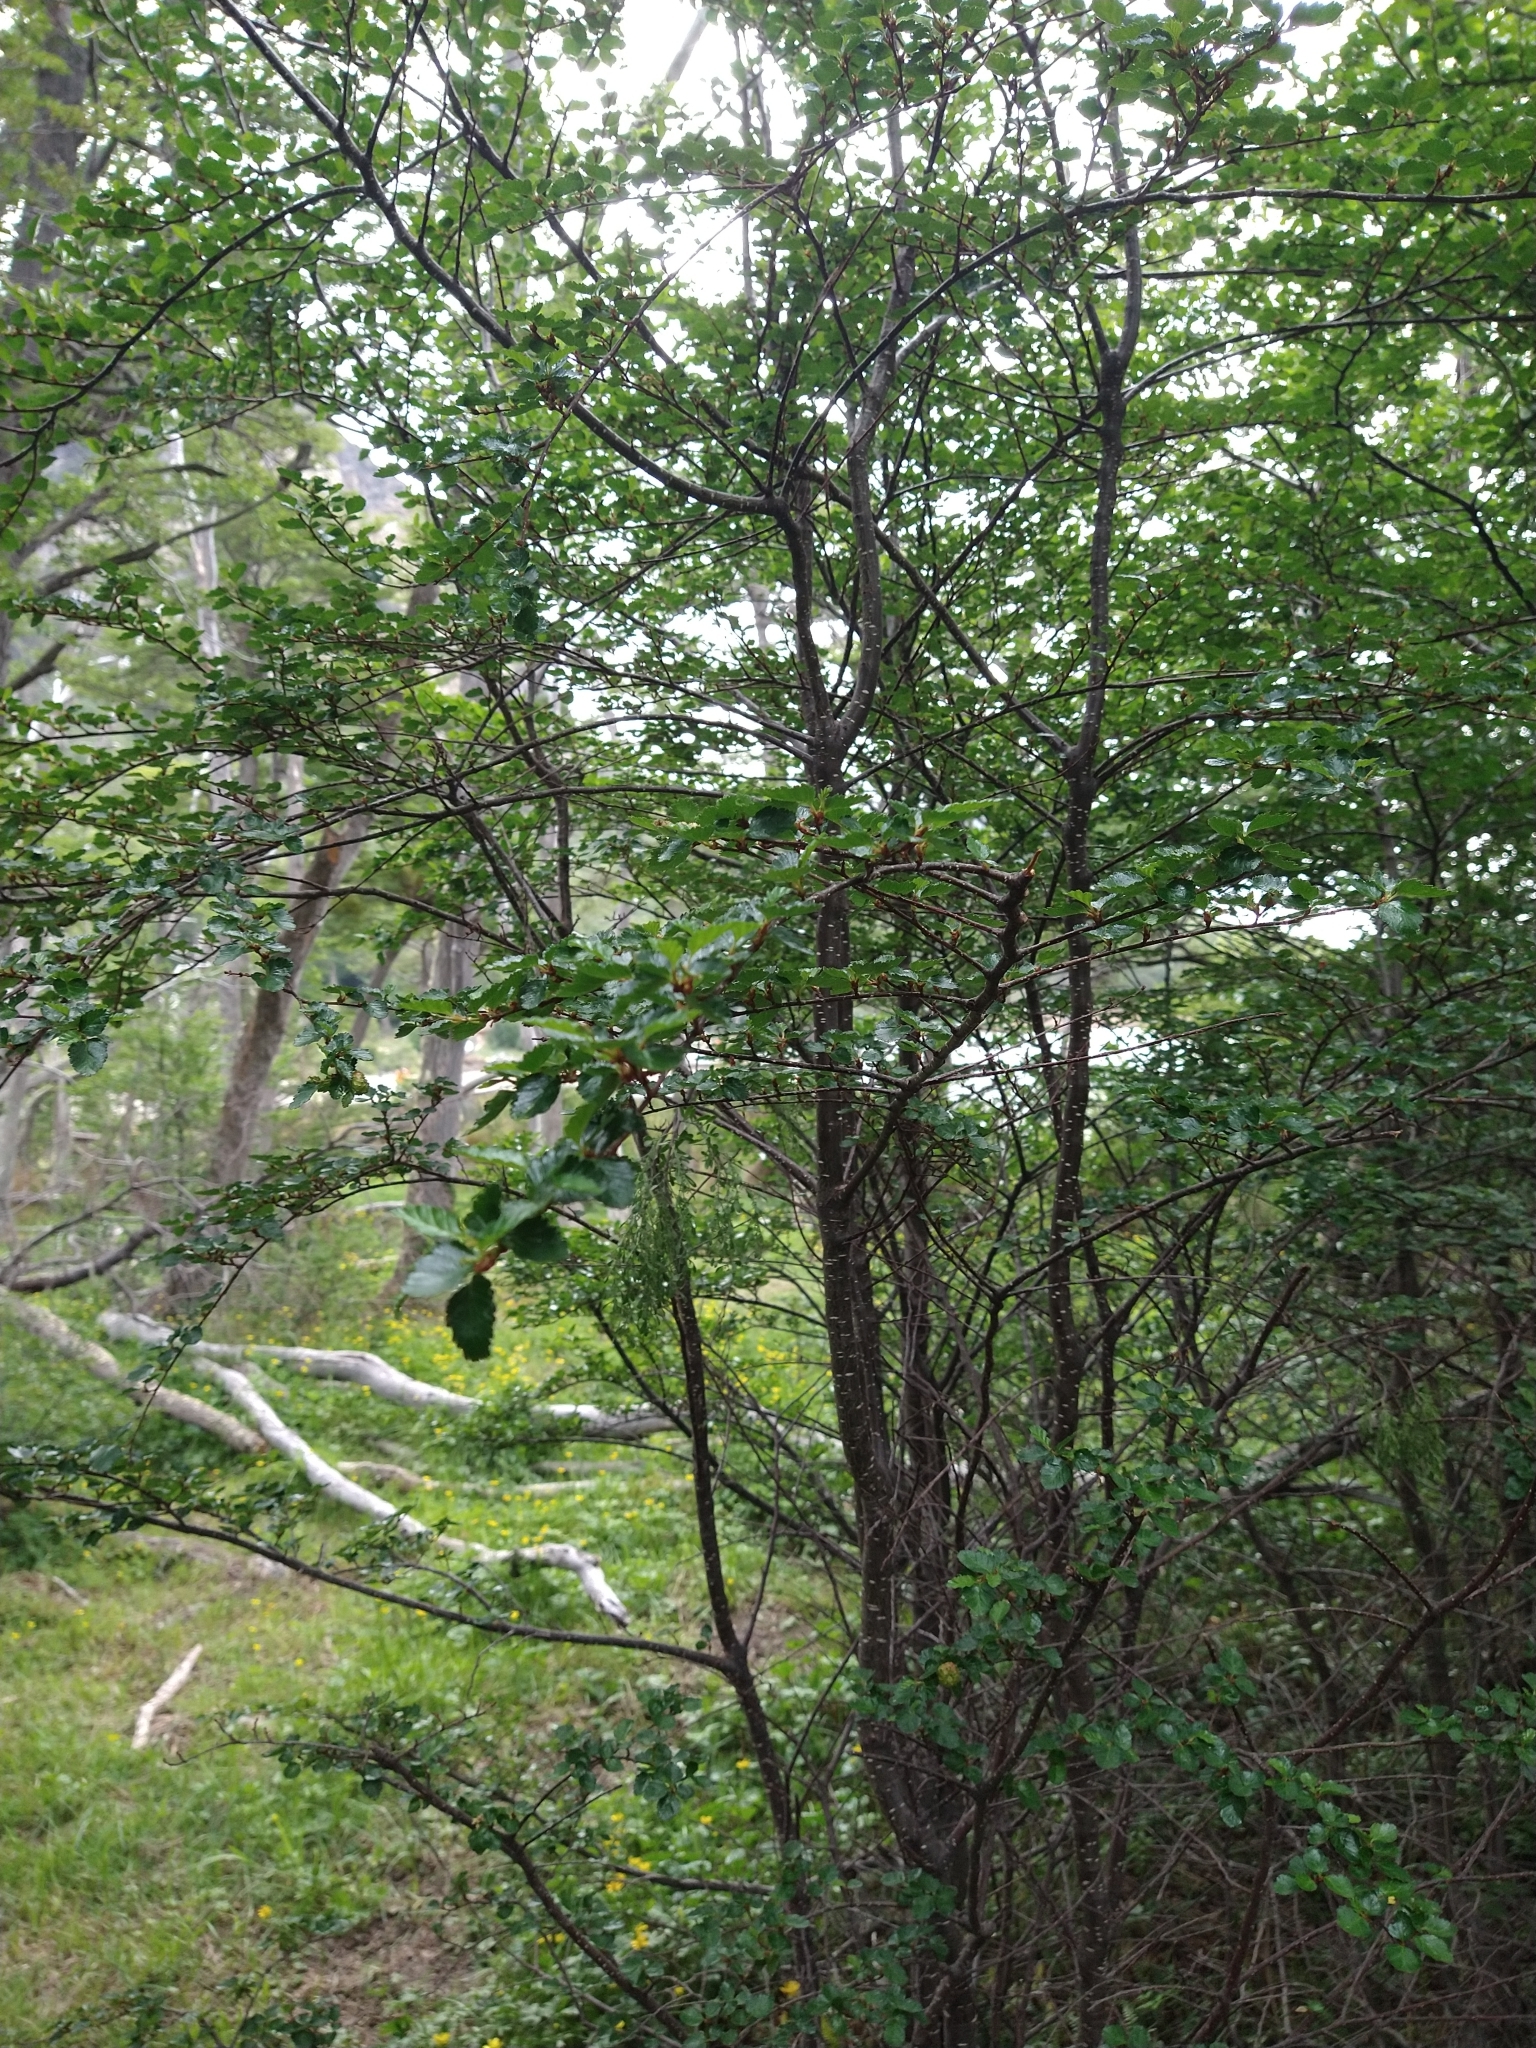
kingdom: Plantae
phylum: Tracheophyta
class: Magnoliopsida
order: Fagales
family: Nothofagaceae
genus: Nothofagus
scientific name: Nothofagus antarctica
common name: Antarctic beech
